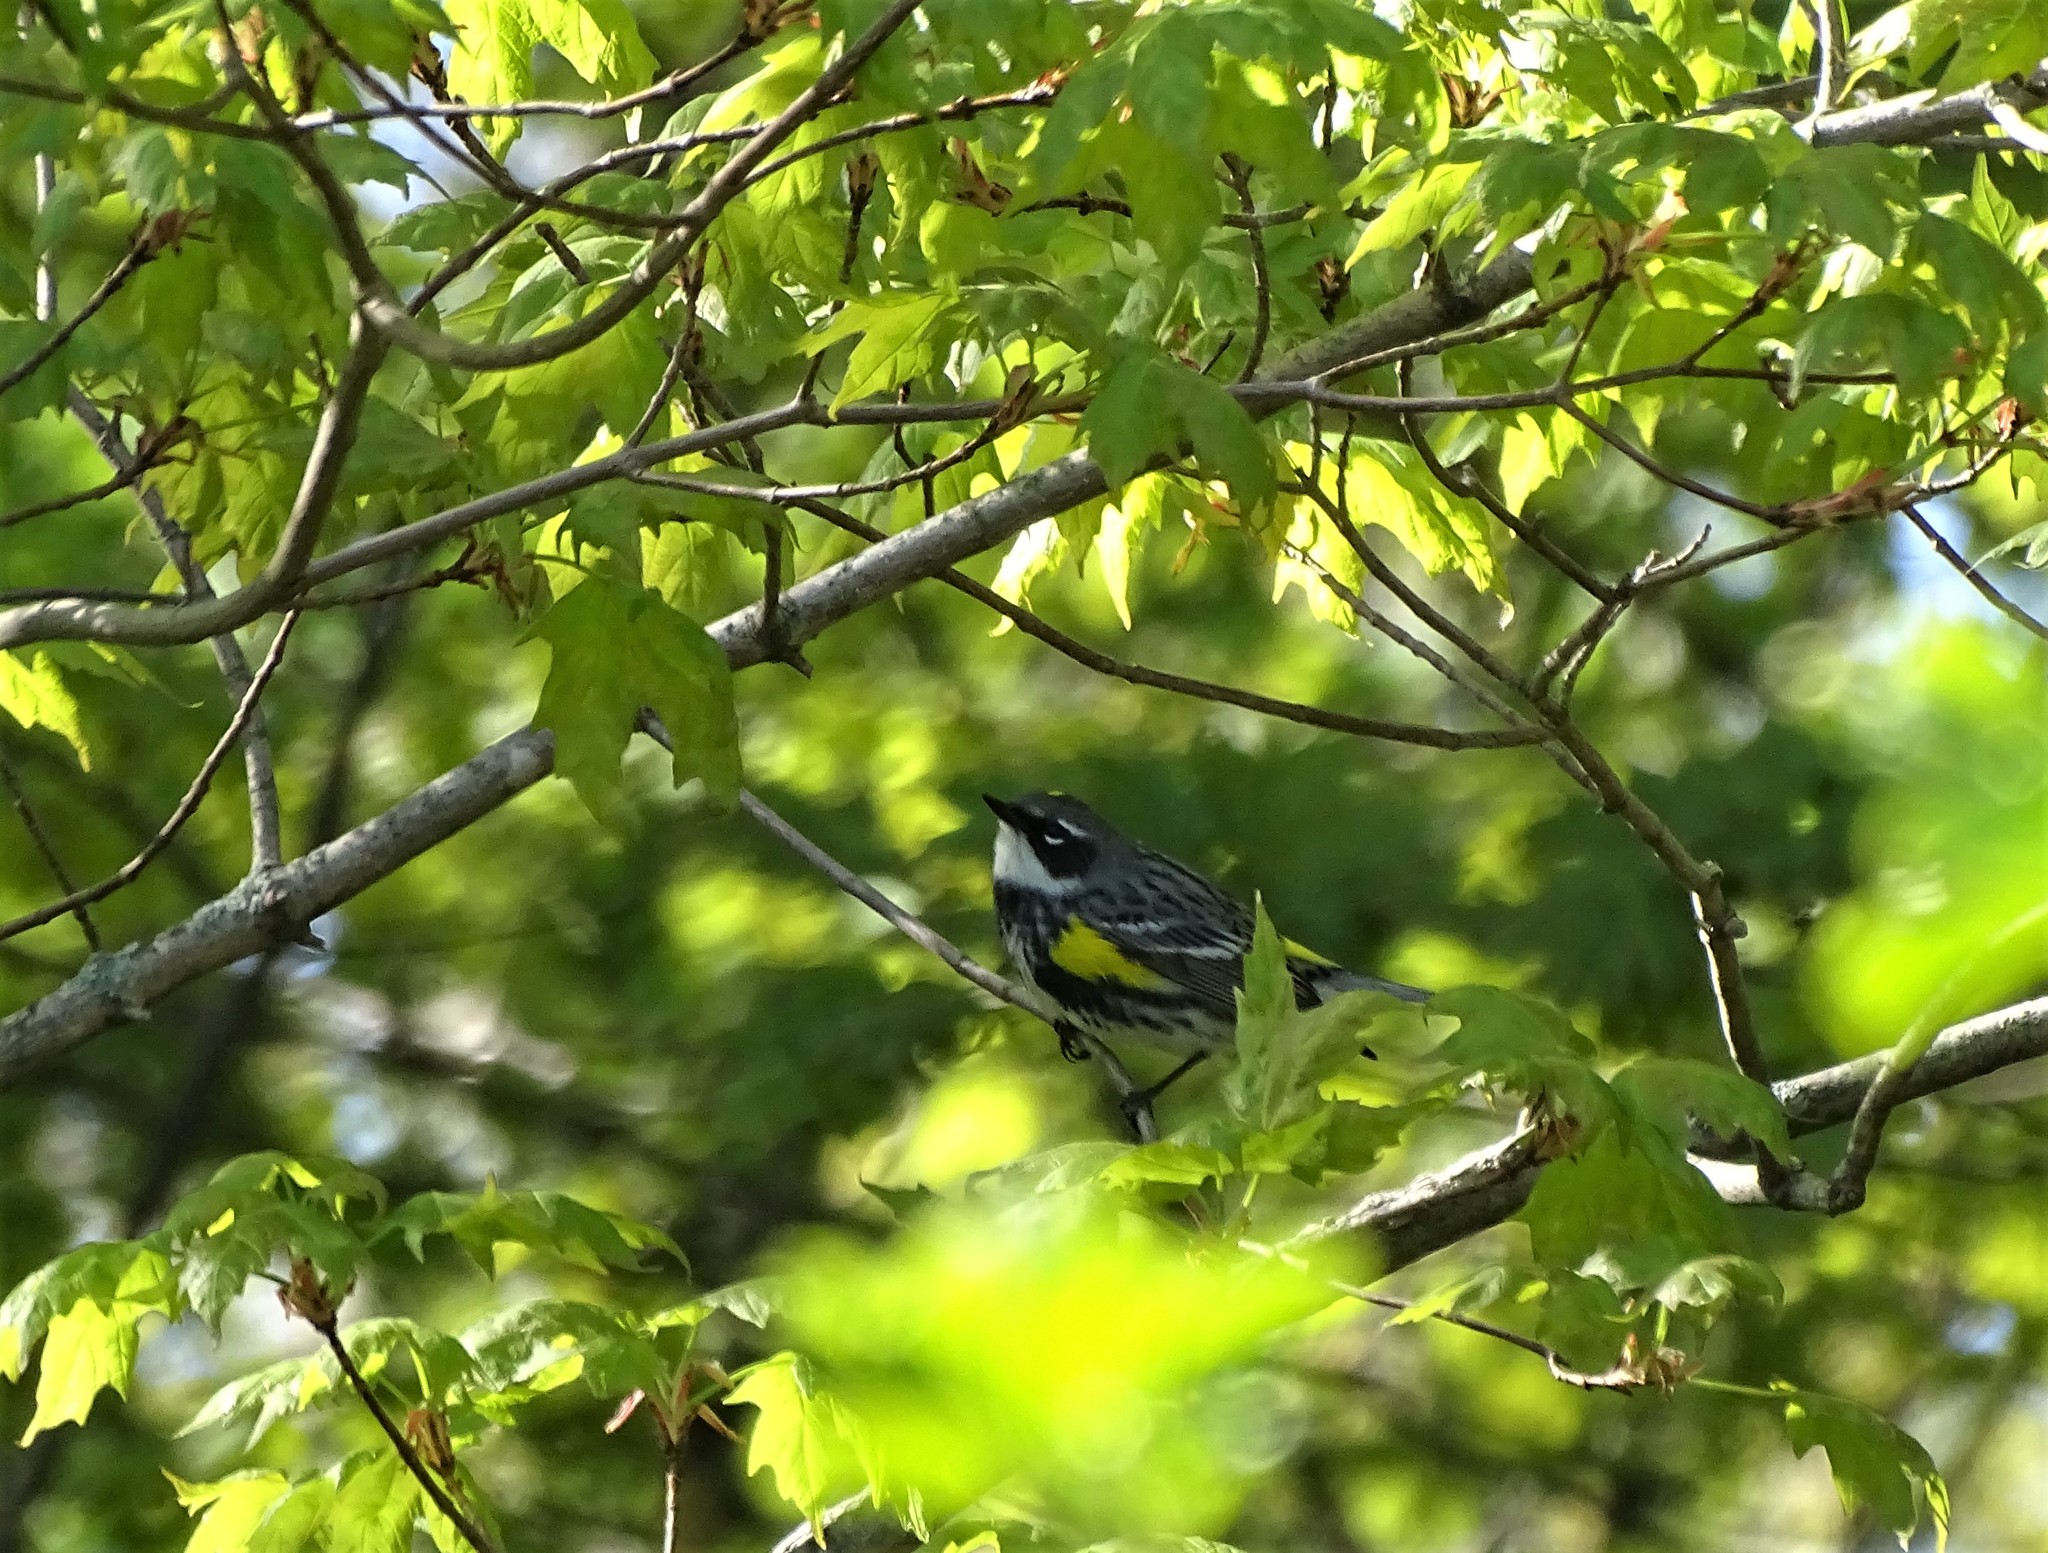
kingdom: Animalia
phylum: Chordata
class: Aves
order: Passeriformes
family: Parulidae
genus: Setophaga
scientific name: Setophaga coronata
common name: Myrtle warbler
